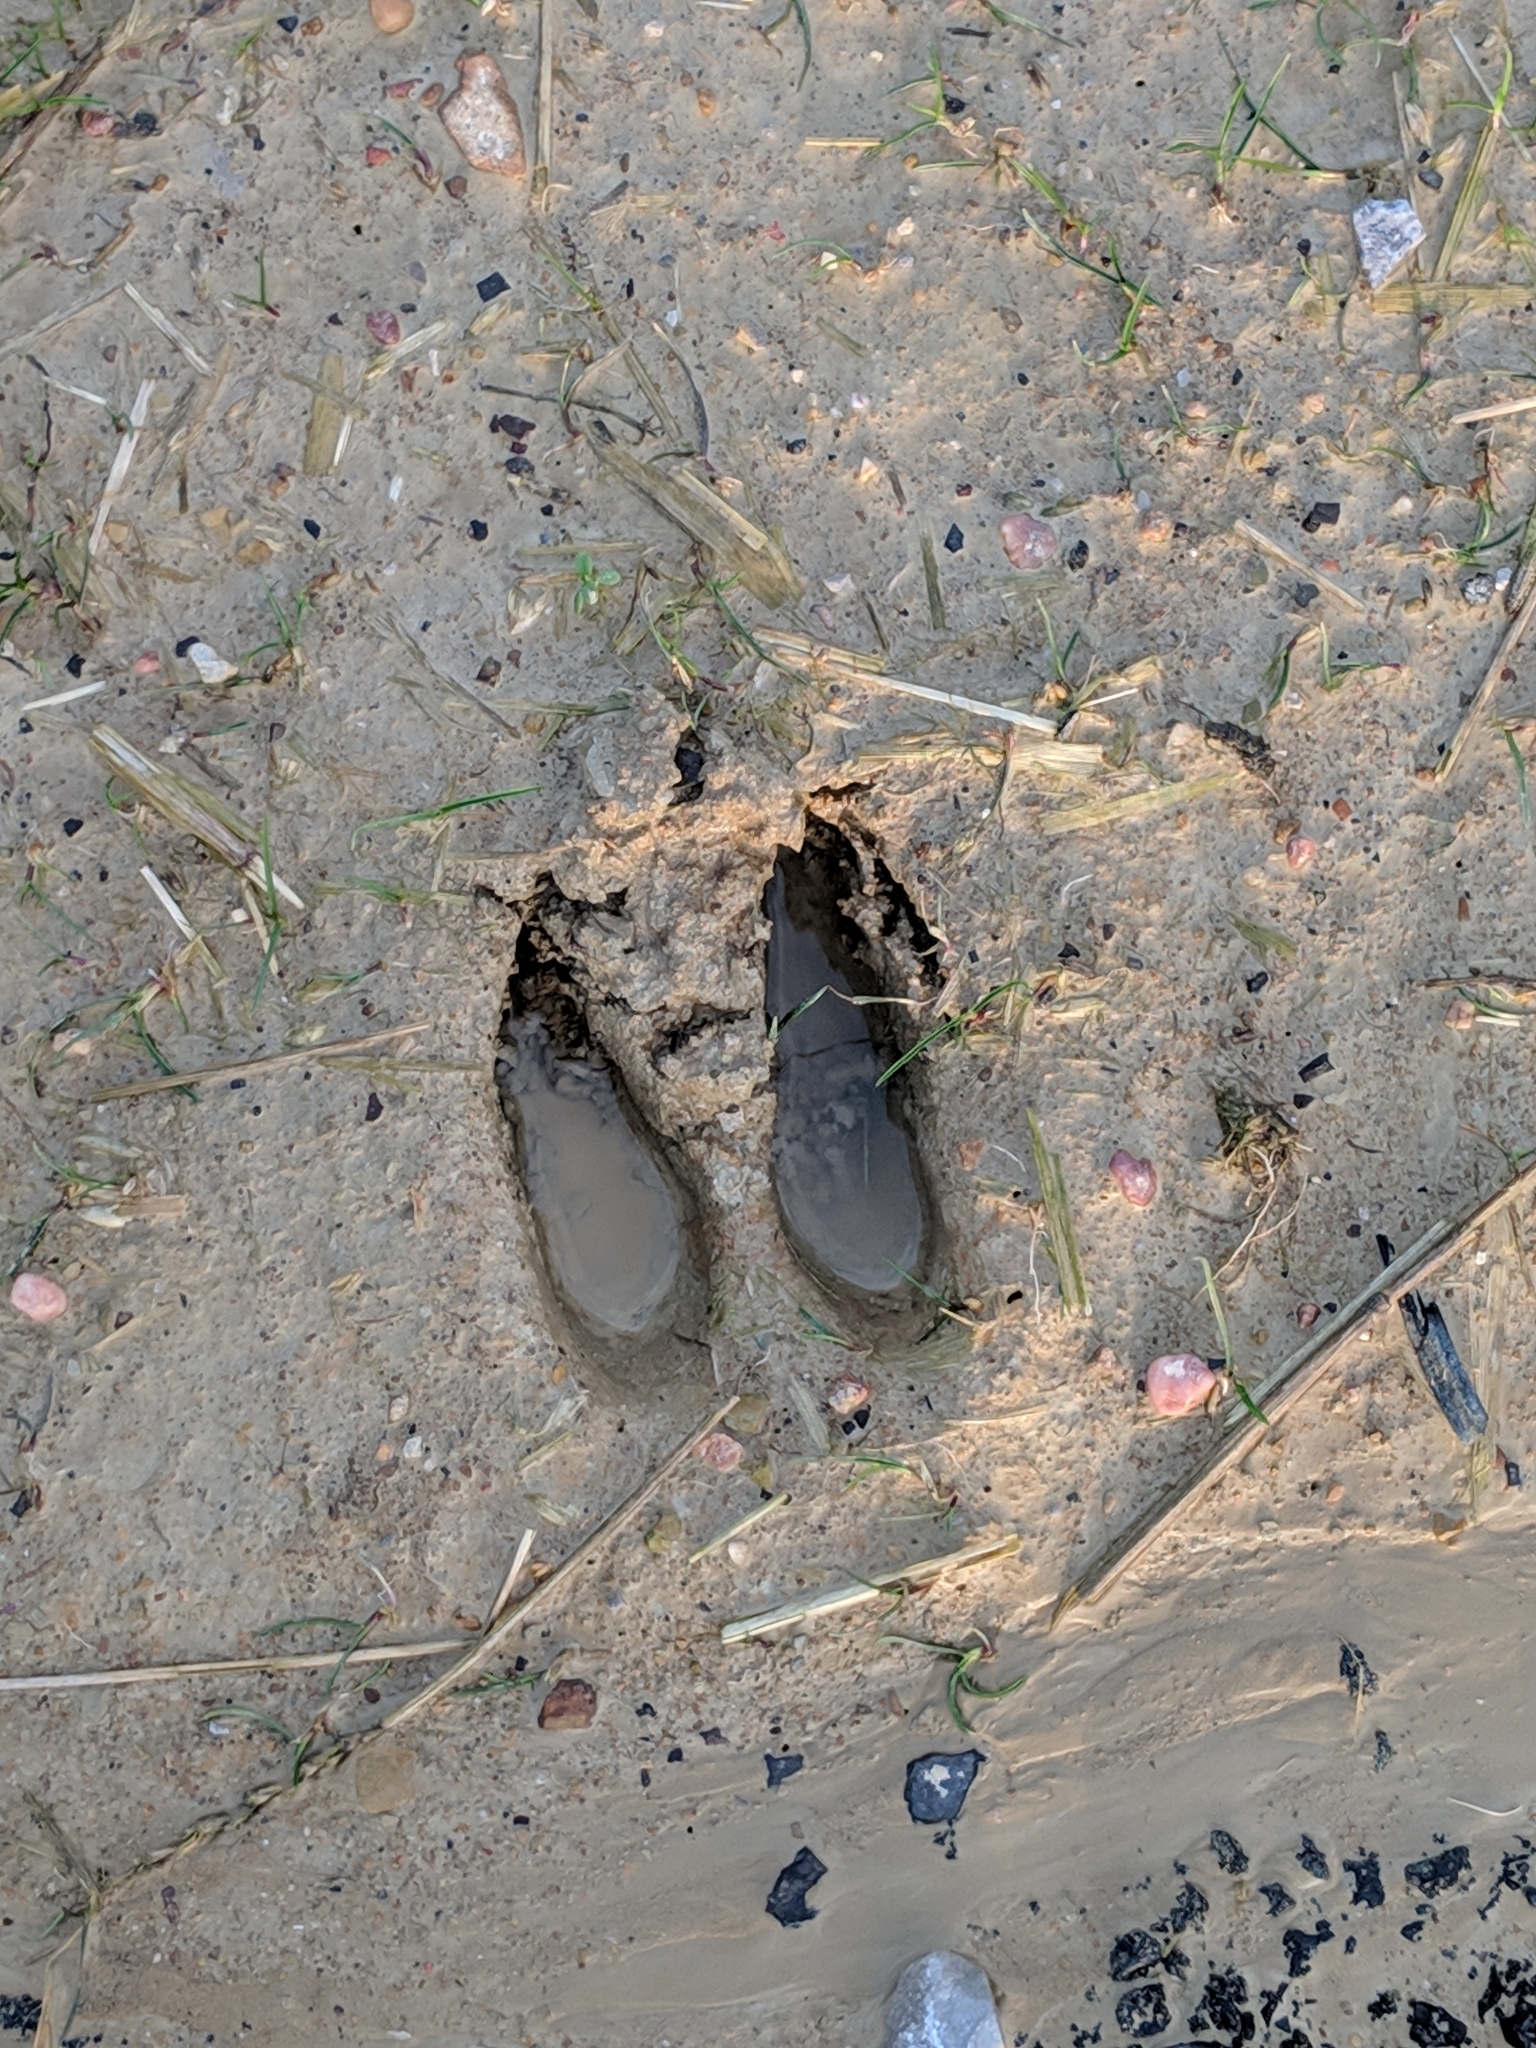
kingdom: Animalia
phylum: Chordata
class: Mammalia
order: Artiodactyla
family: Cervidae
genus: Odocoileus
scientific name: Odocoileus virginianus
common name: White-tailed deer
